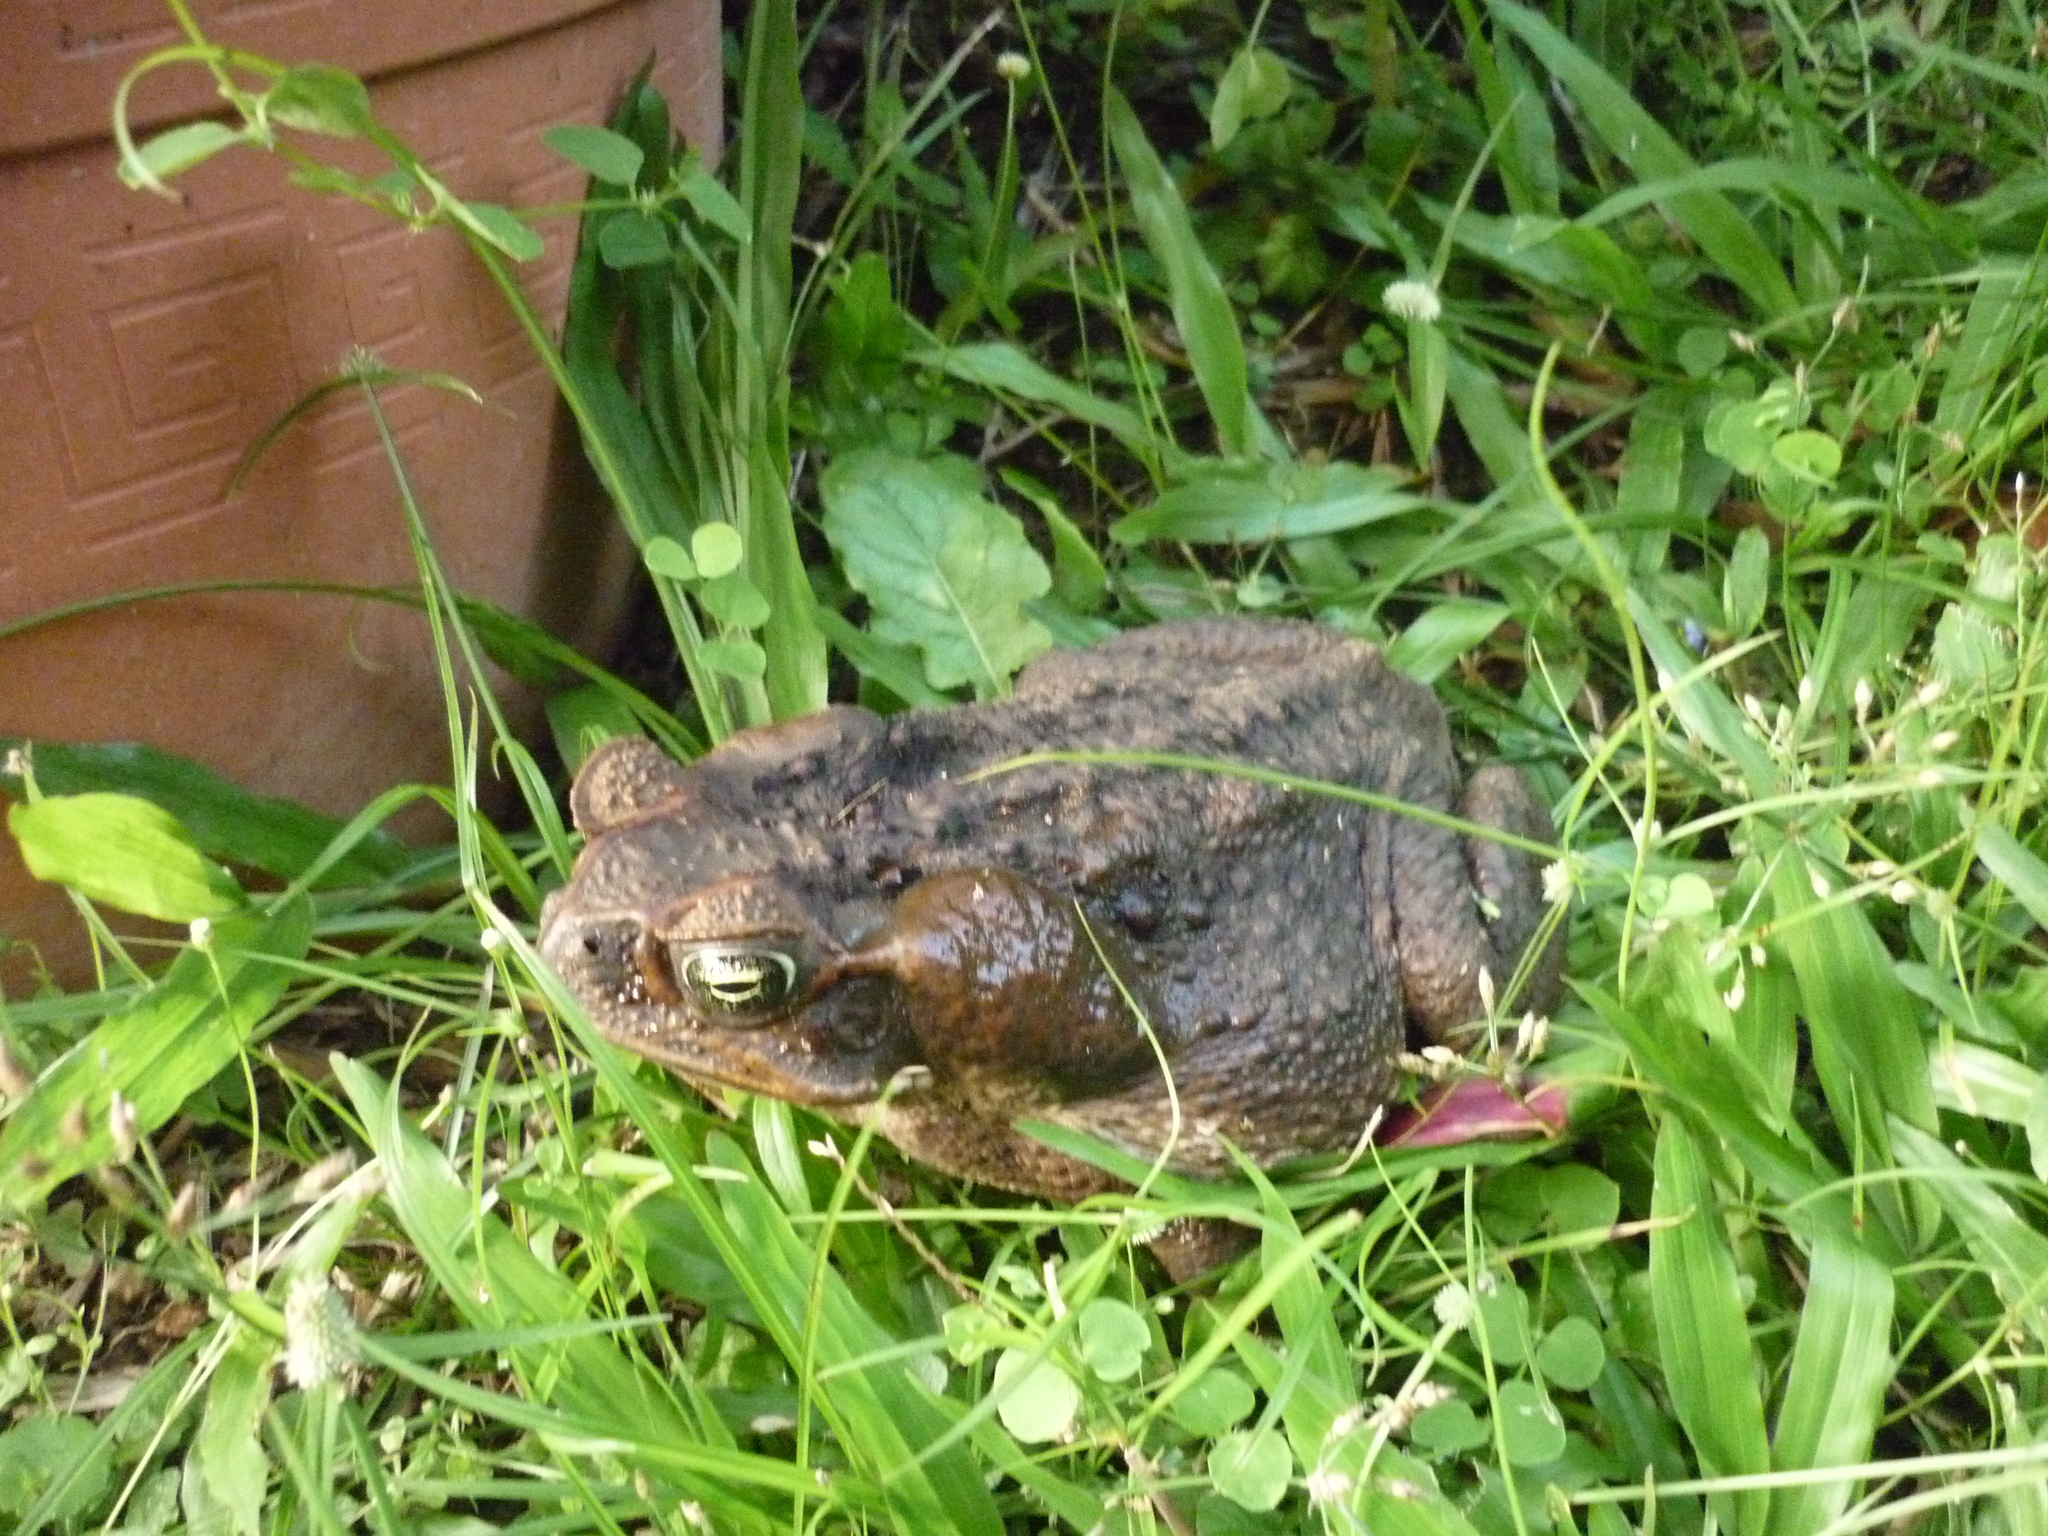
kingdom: Animalia
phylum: Chordata
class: Amphibia
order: Anura
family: Bufonidae
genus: Rhinella
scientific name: Rhinella marina
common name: Cane toad
